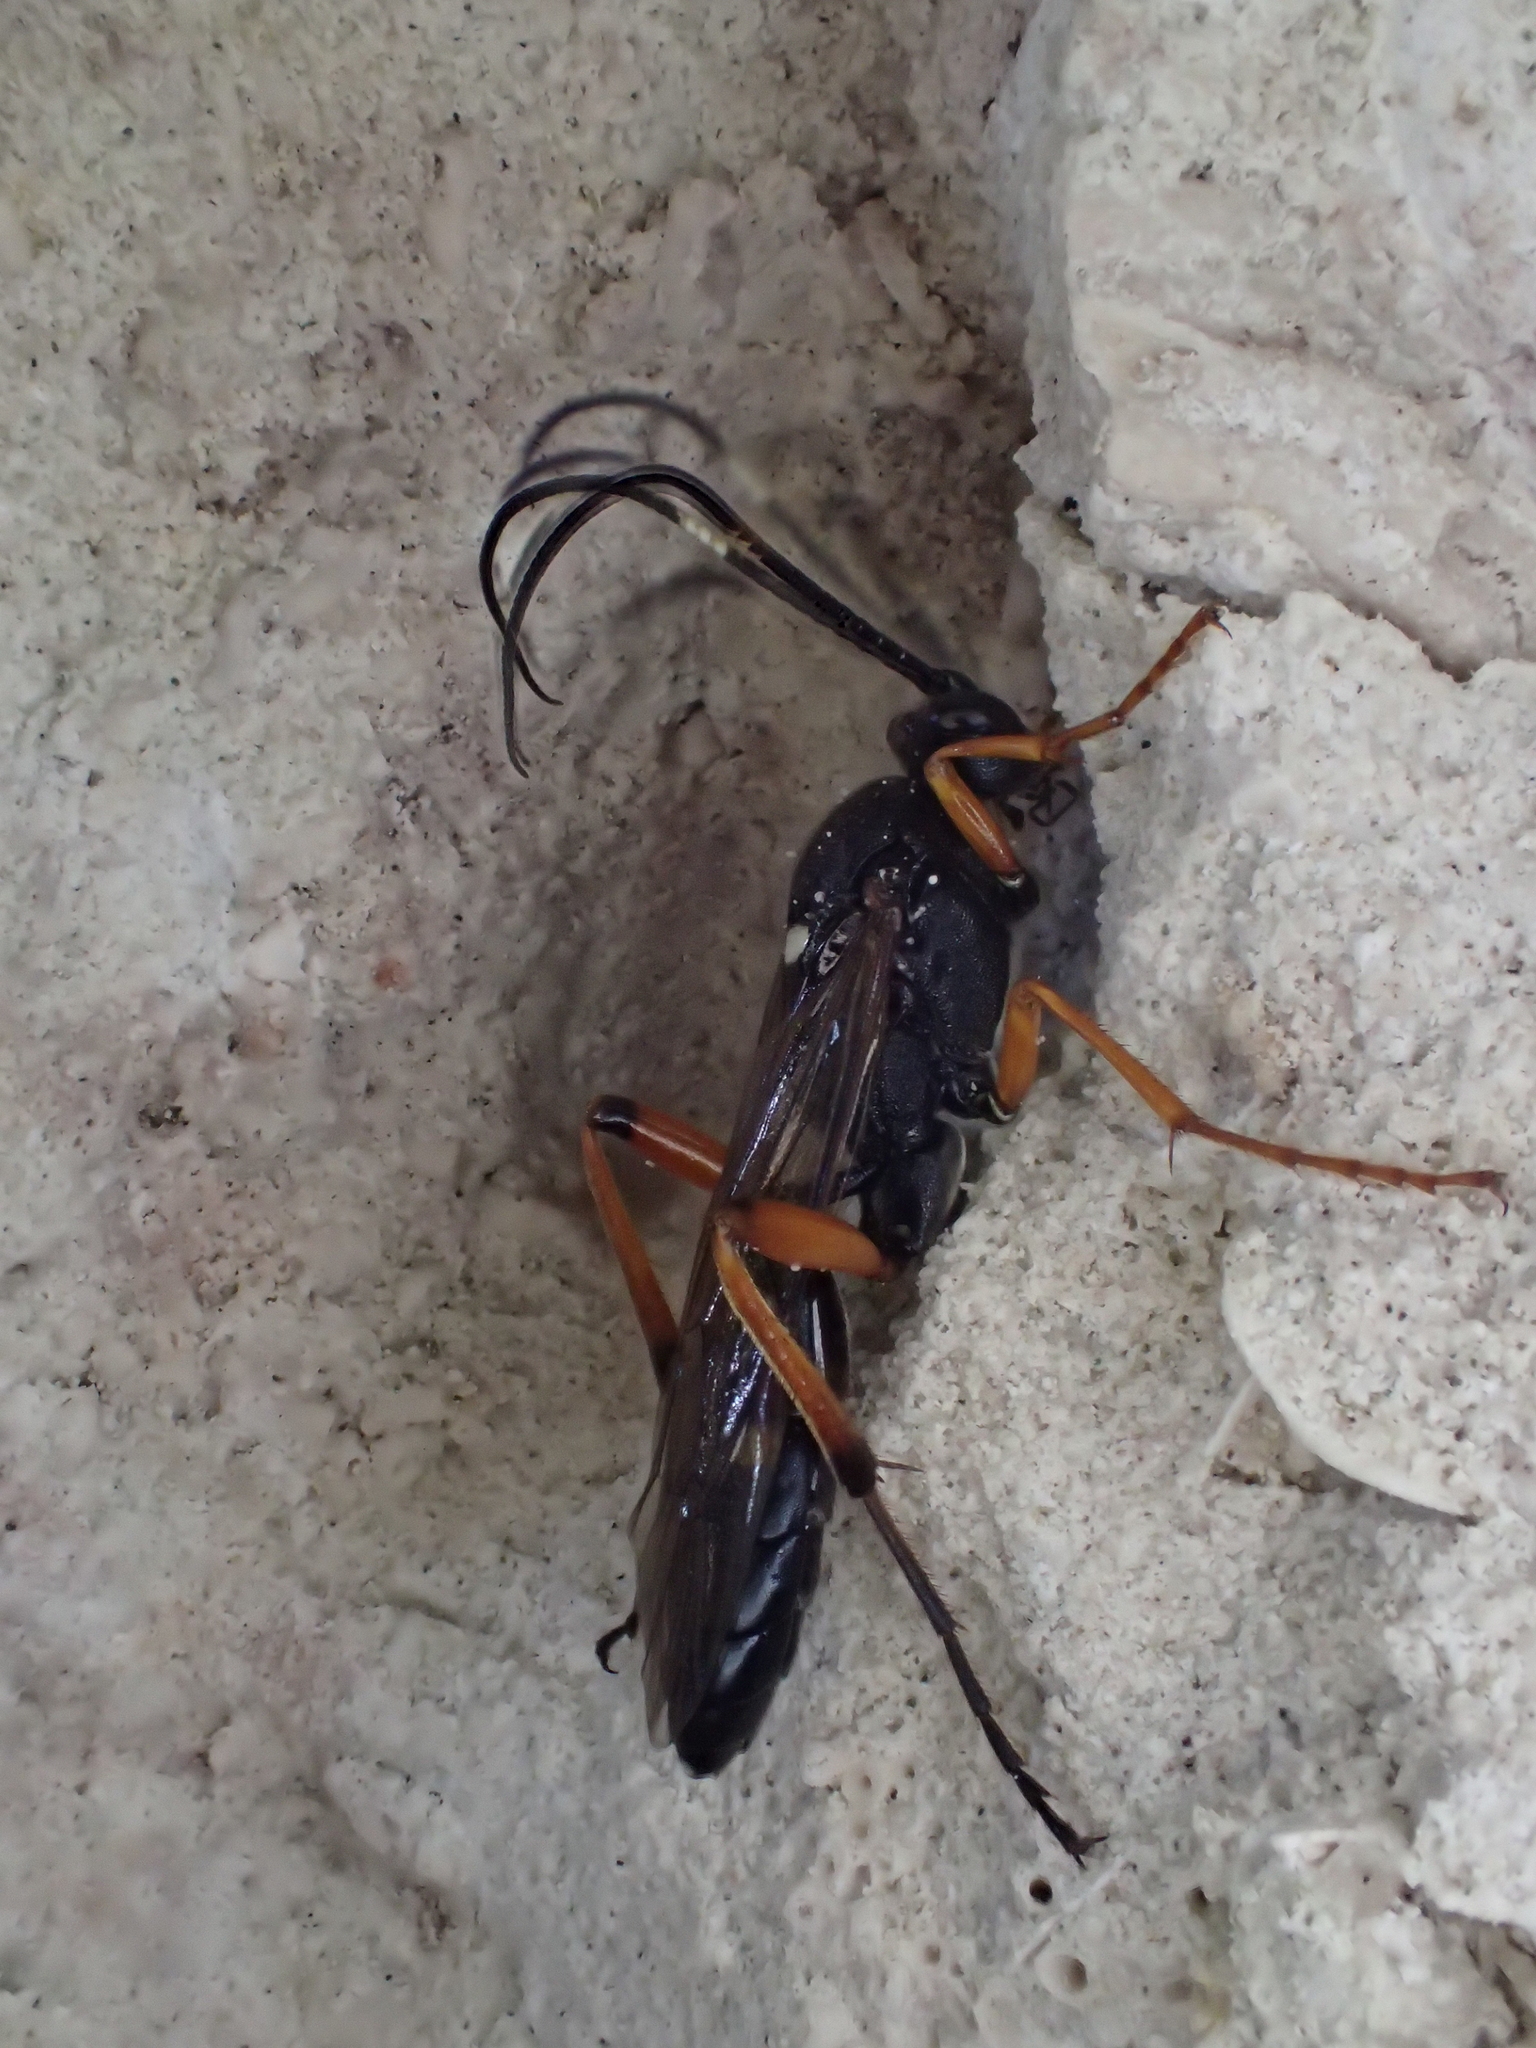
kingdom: Animalia
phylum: Arthropoda
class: Insecta
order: Hymenoptera
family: Ichneumonidae
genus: Diphyus
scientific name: Diphyus quadripunctorius
